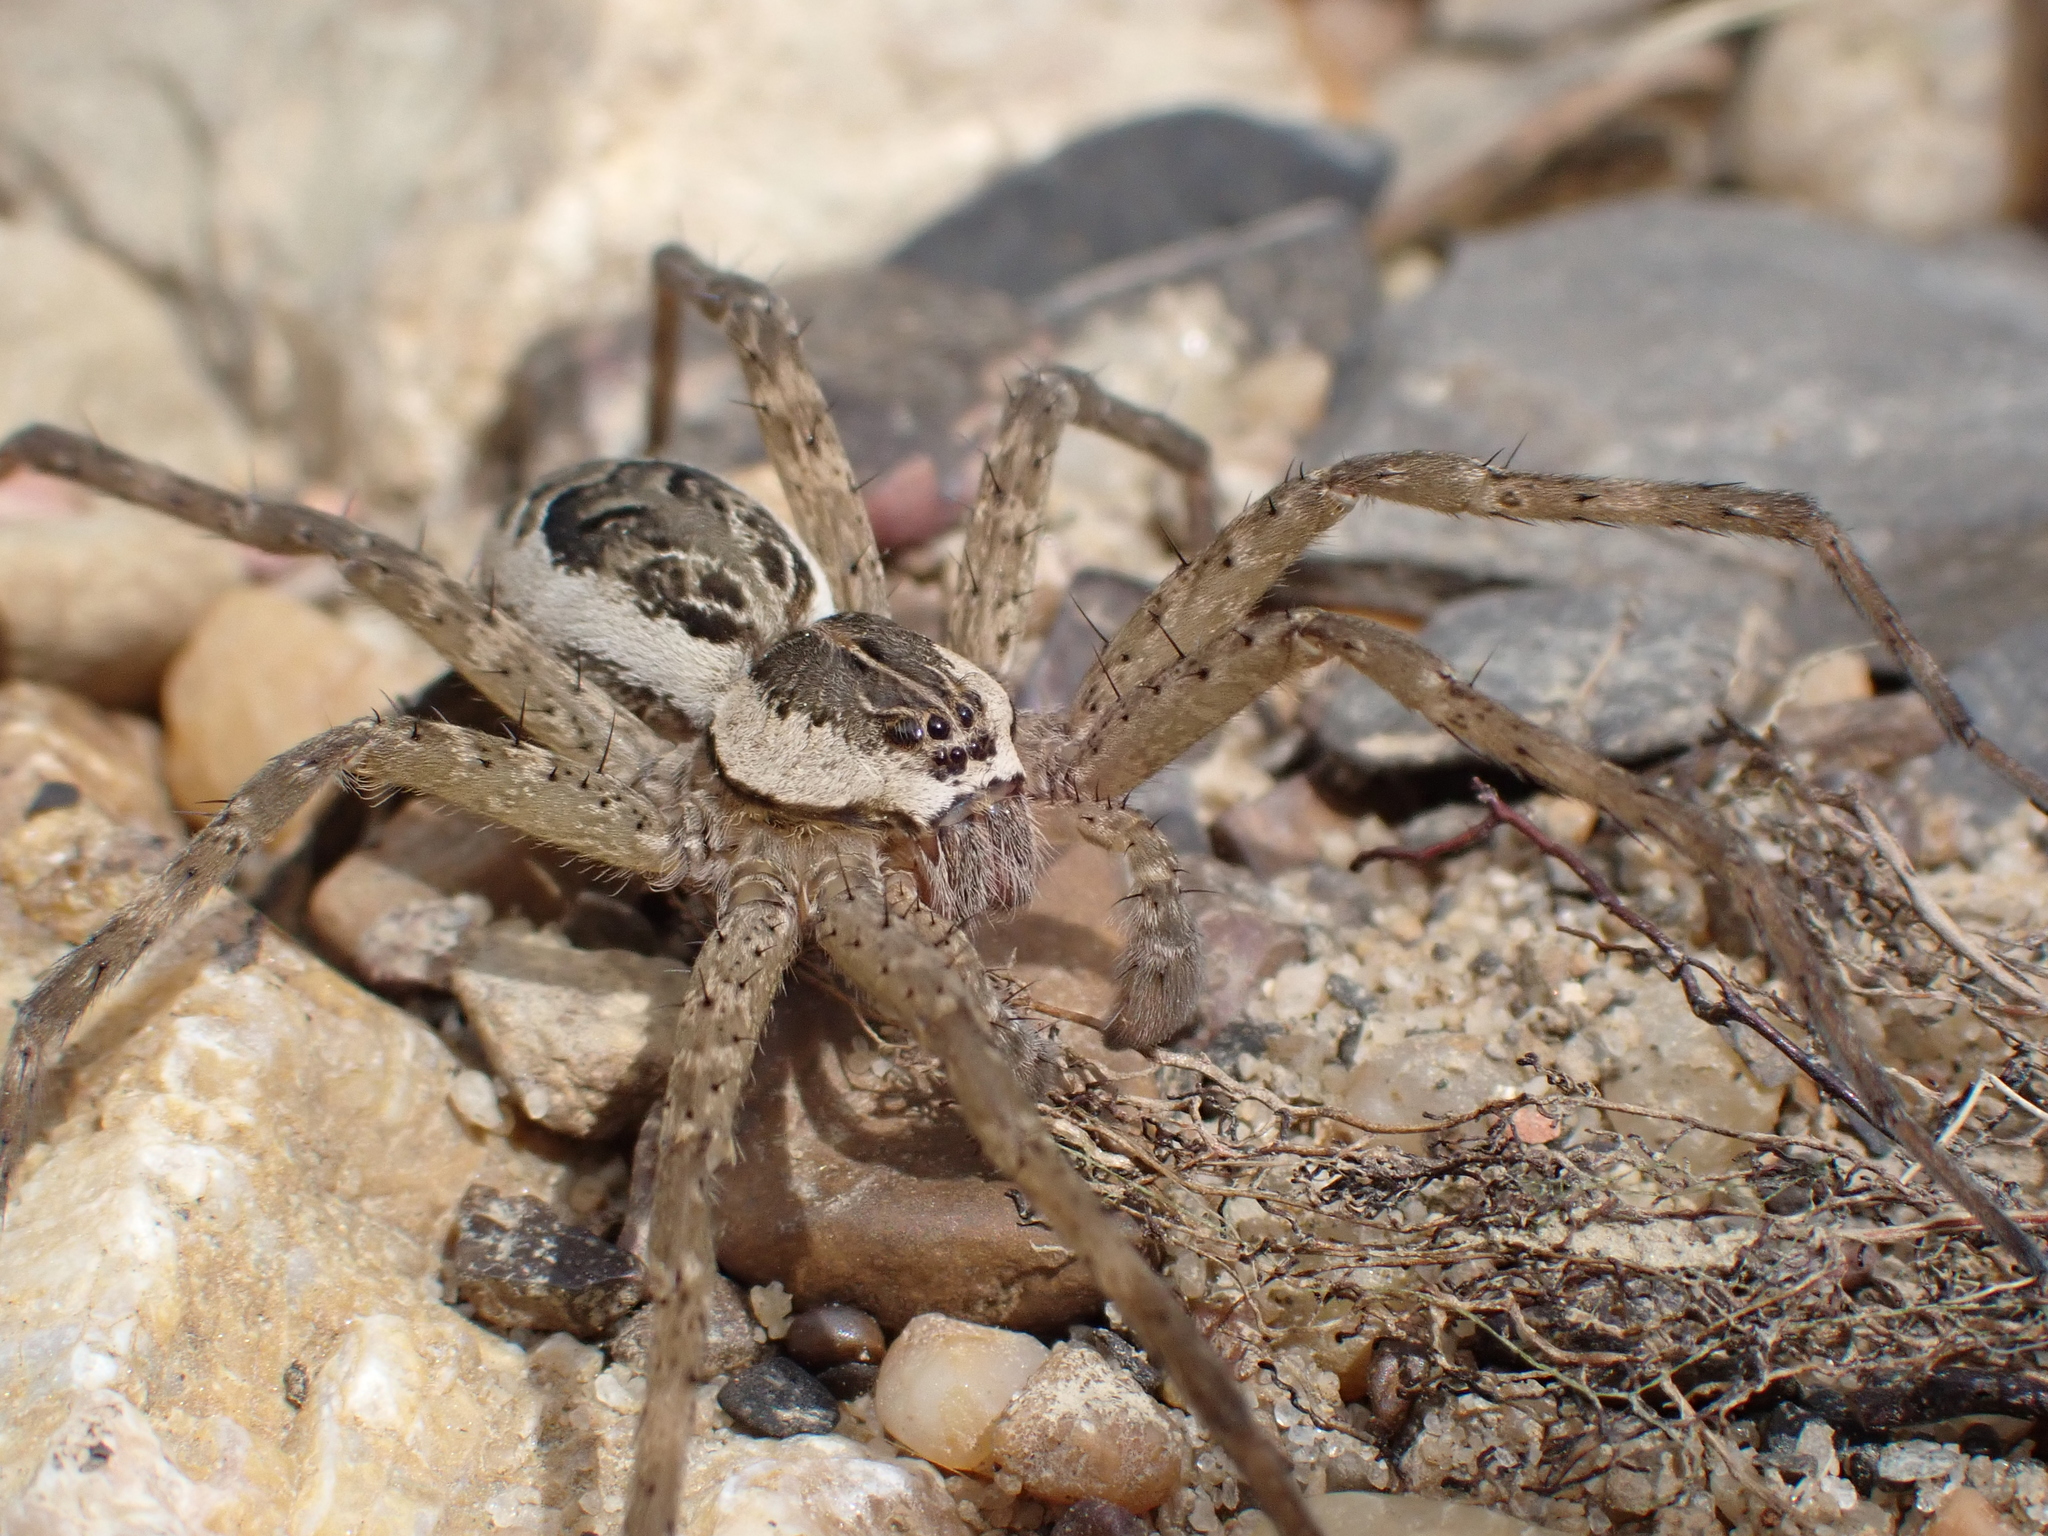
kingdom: Animalia
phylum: Arthropoda
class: Arachnida
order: Araneae
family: Pisauridae
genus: Dolomedes
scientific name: Dolomedes scriptus
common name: Striped fishing spider
